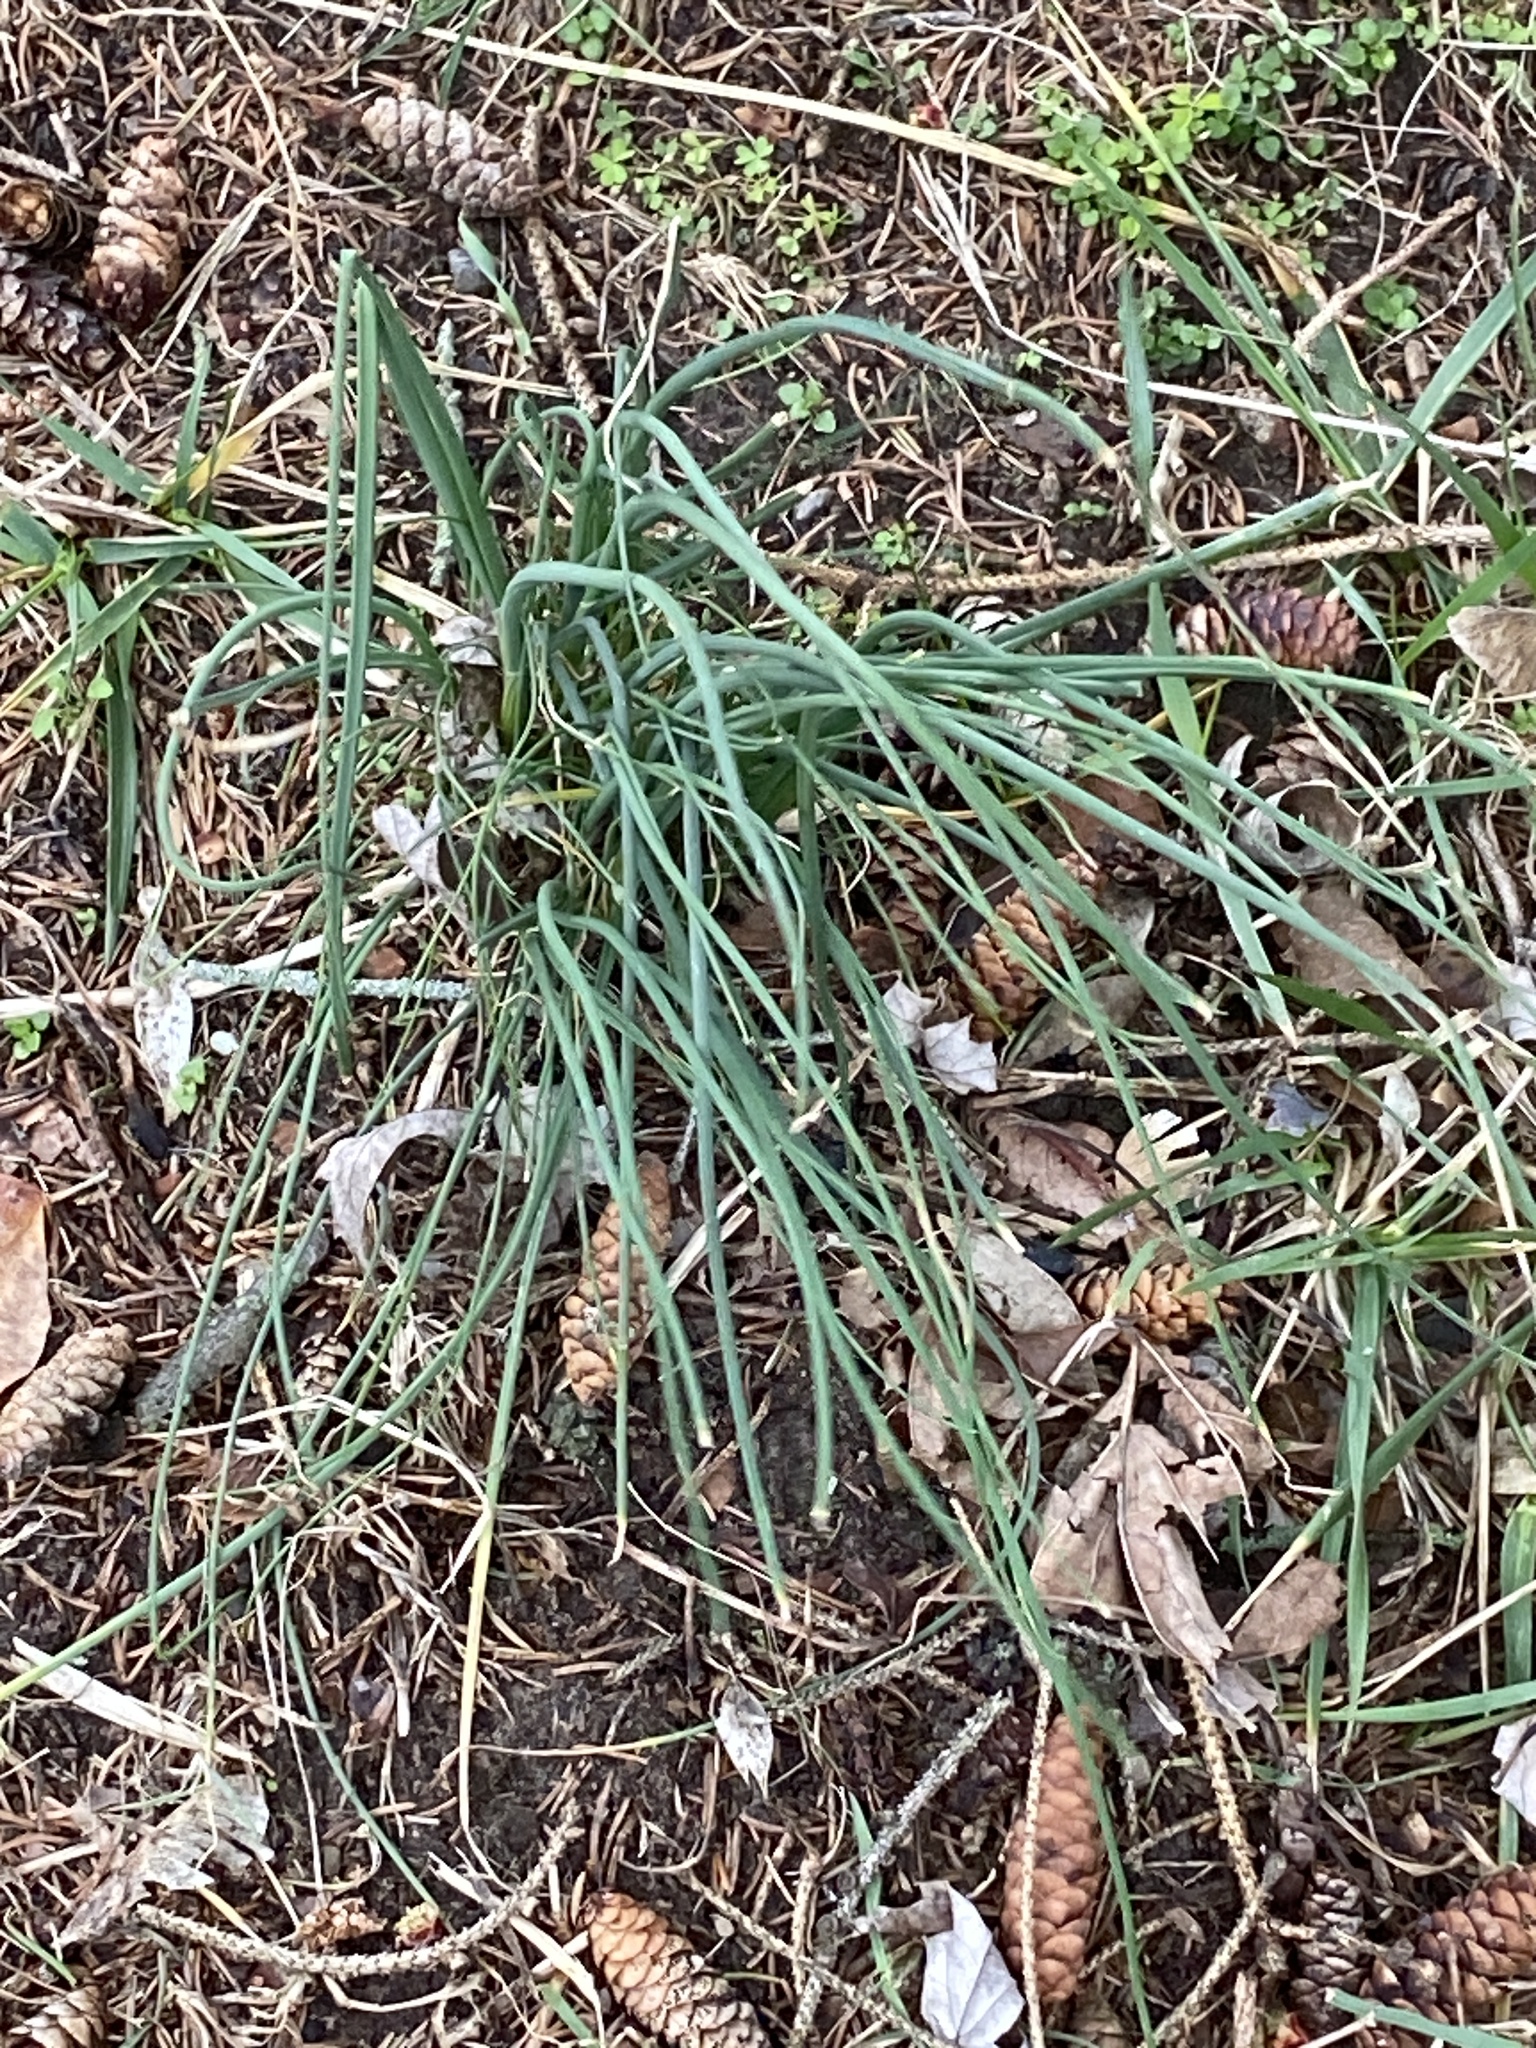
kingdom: Plantae
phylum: Tracheophyta
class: Liliopsida
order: Asparagales
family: Amaryllidaceae
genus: Allium
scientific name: Allium vineale
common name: Crow garlic
